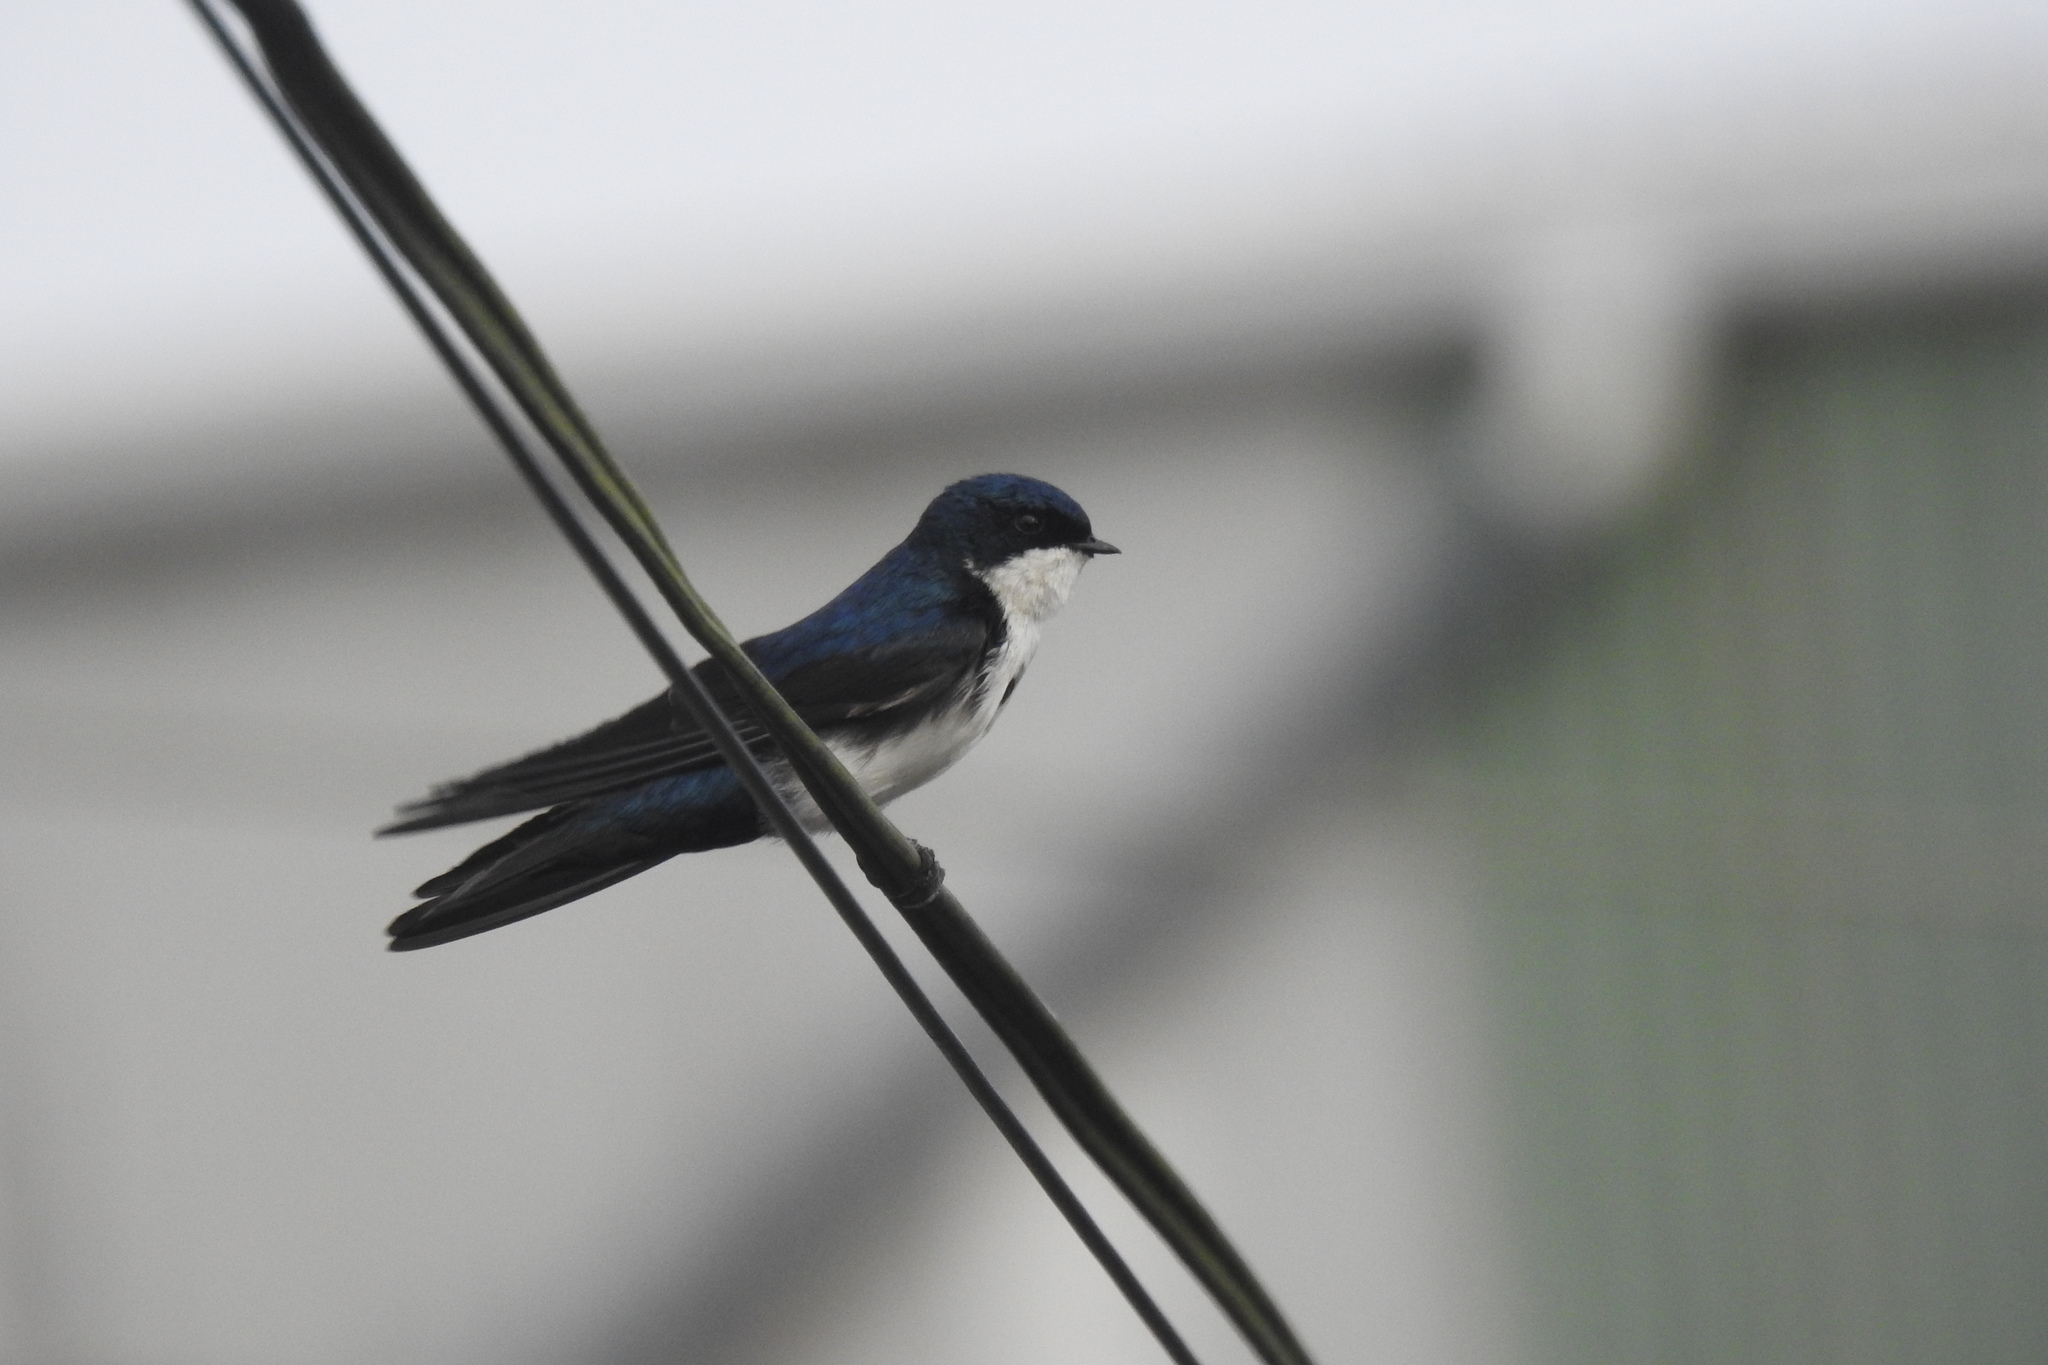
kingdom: Animalia
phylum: Chordata
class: Aves
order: Passeriformes
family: Hirundinidae
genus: Notiochelidon
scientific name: Notiochelidon cyanoleuca
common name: Blue-and-white swallow
